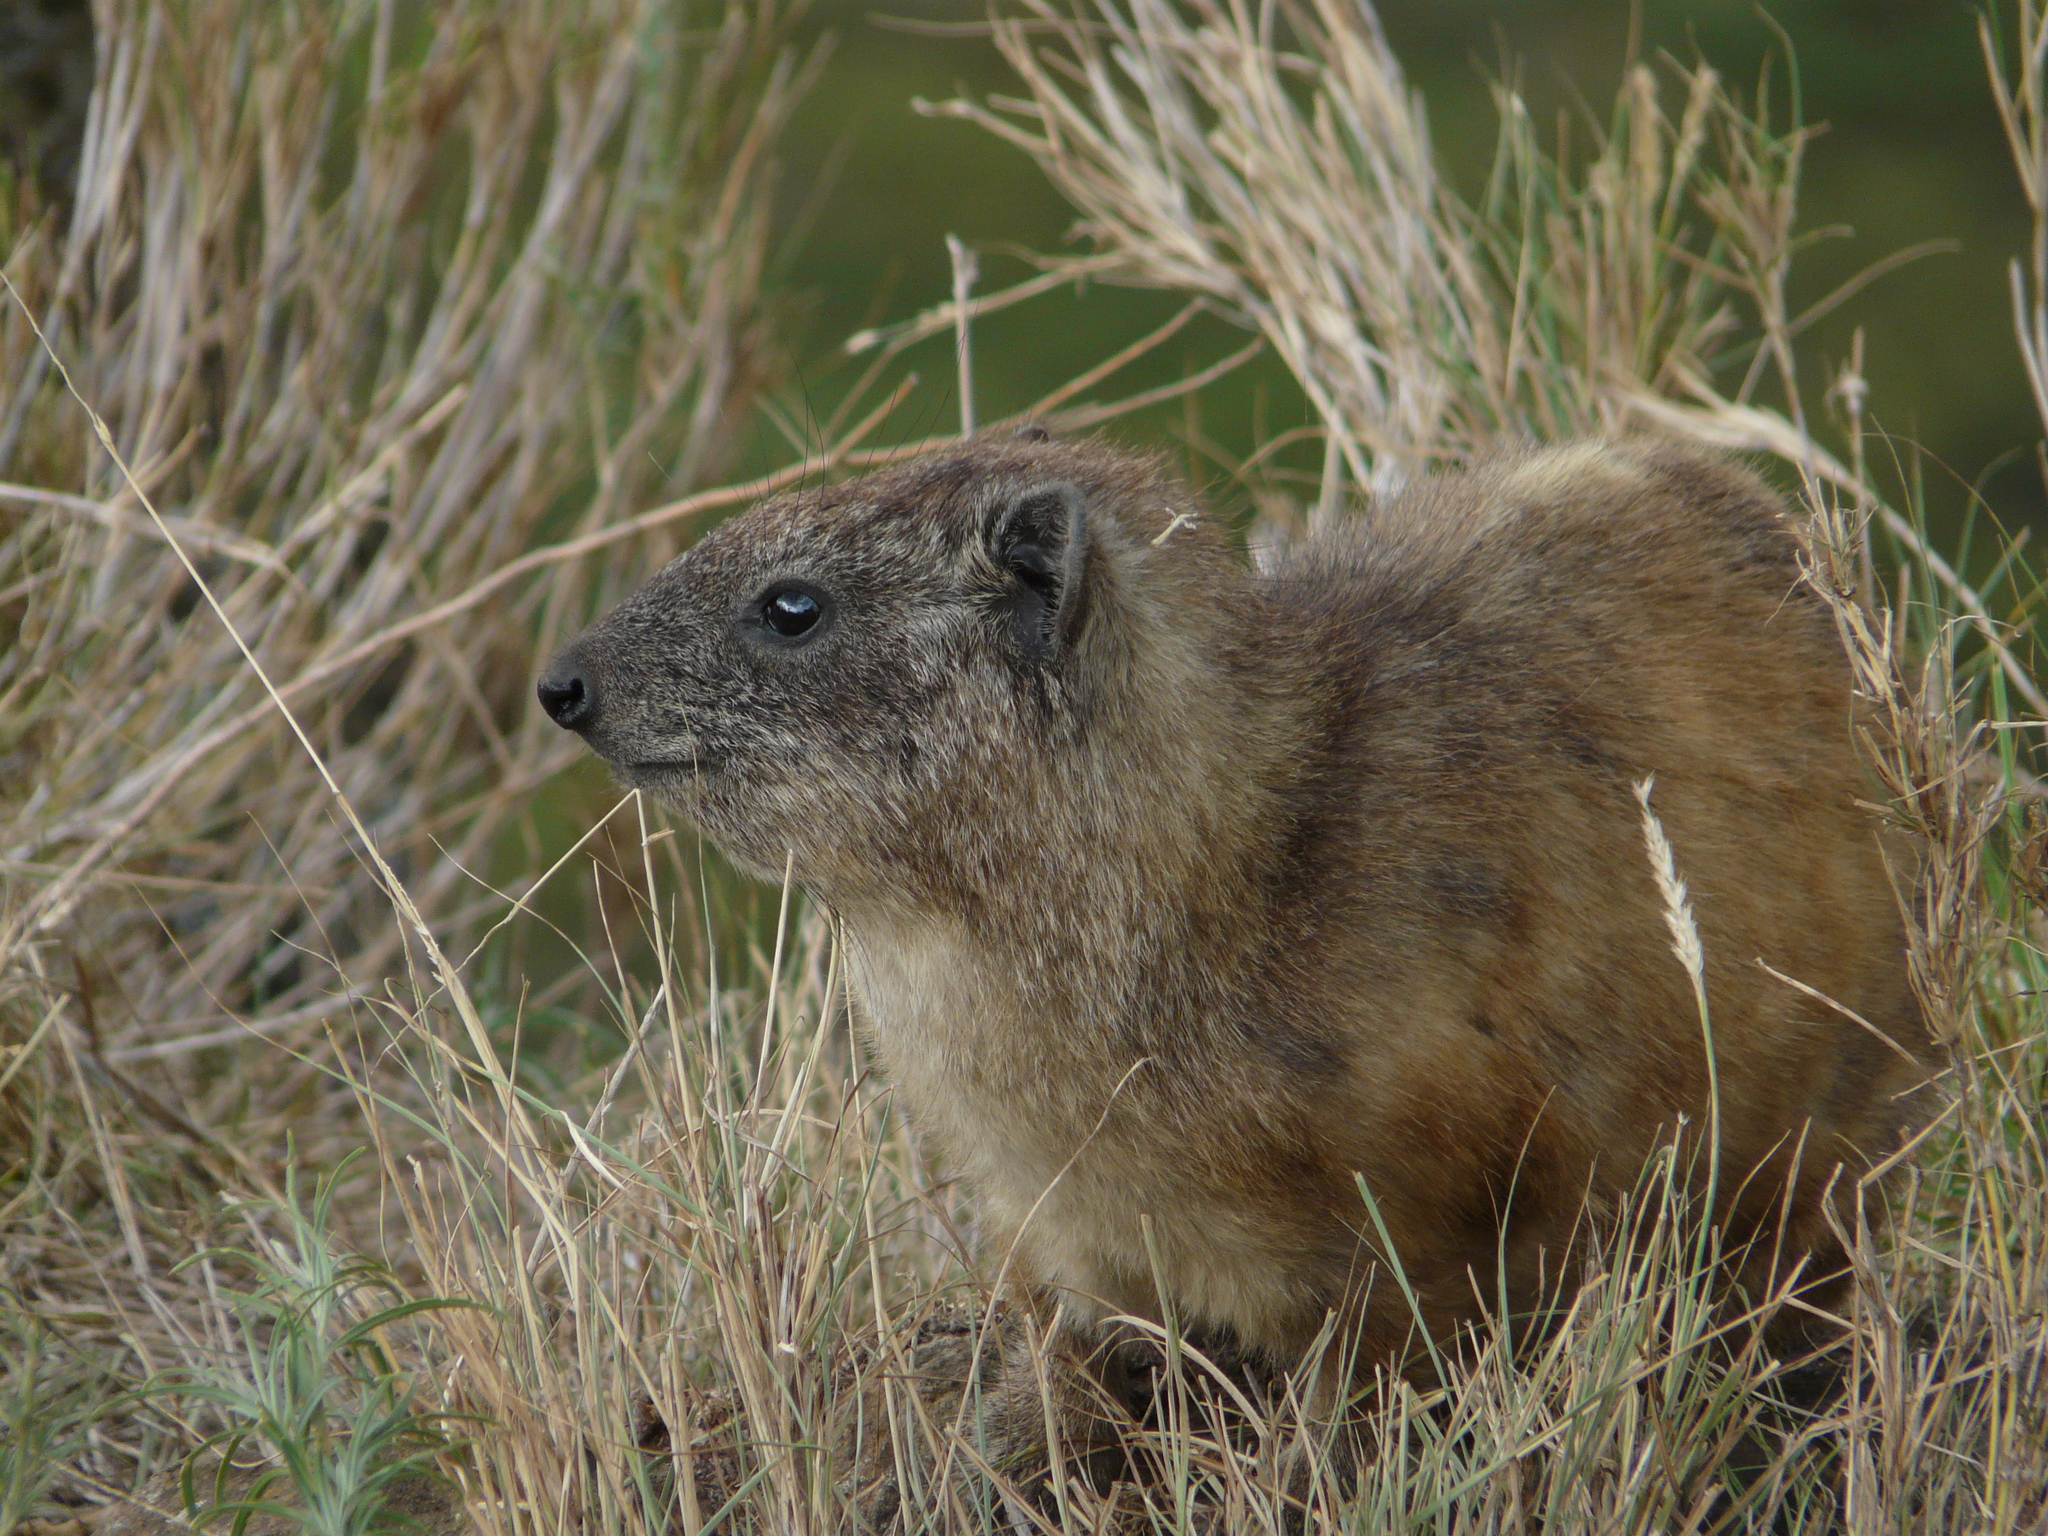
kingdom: Animalia
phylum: Chordata
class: Mammalia
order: Hyracoidea
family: Procaviidae
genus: Procavia
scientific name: Procavia capensis
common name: Rock hyrax
